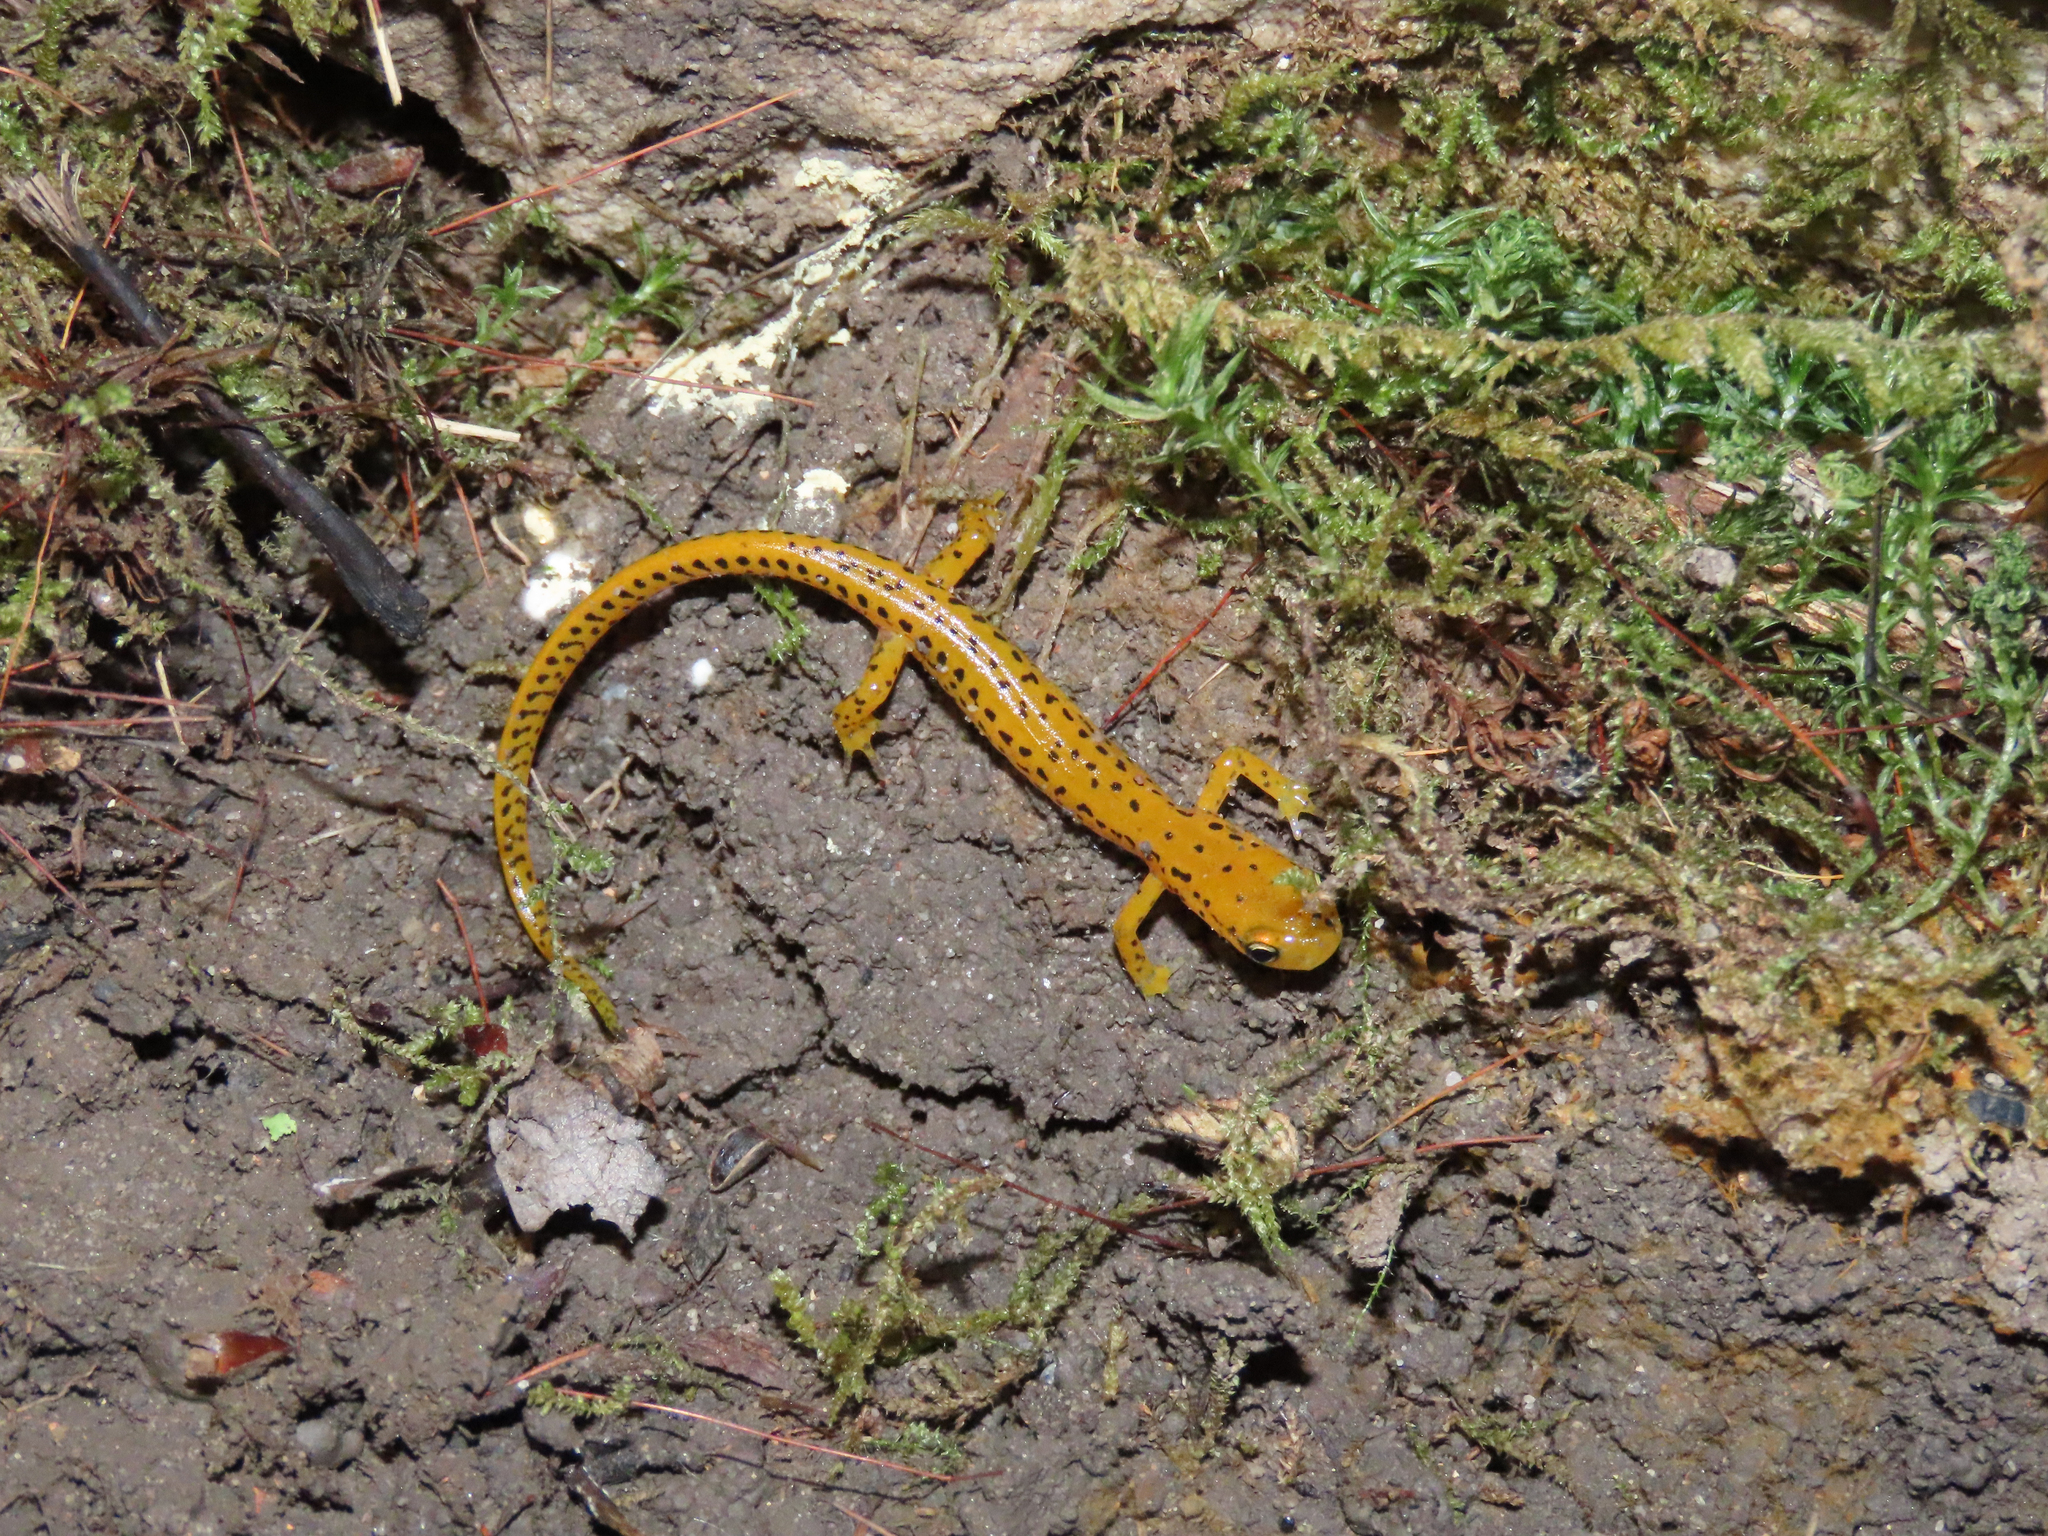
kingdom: Animalia
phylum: Chordata
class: Amphibia
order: Caudata
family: Plethodontidae
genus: Eurycea
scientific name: Eurycea longicauda
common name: Long-tailed salamander
